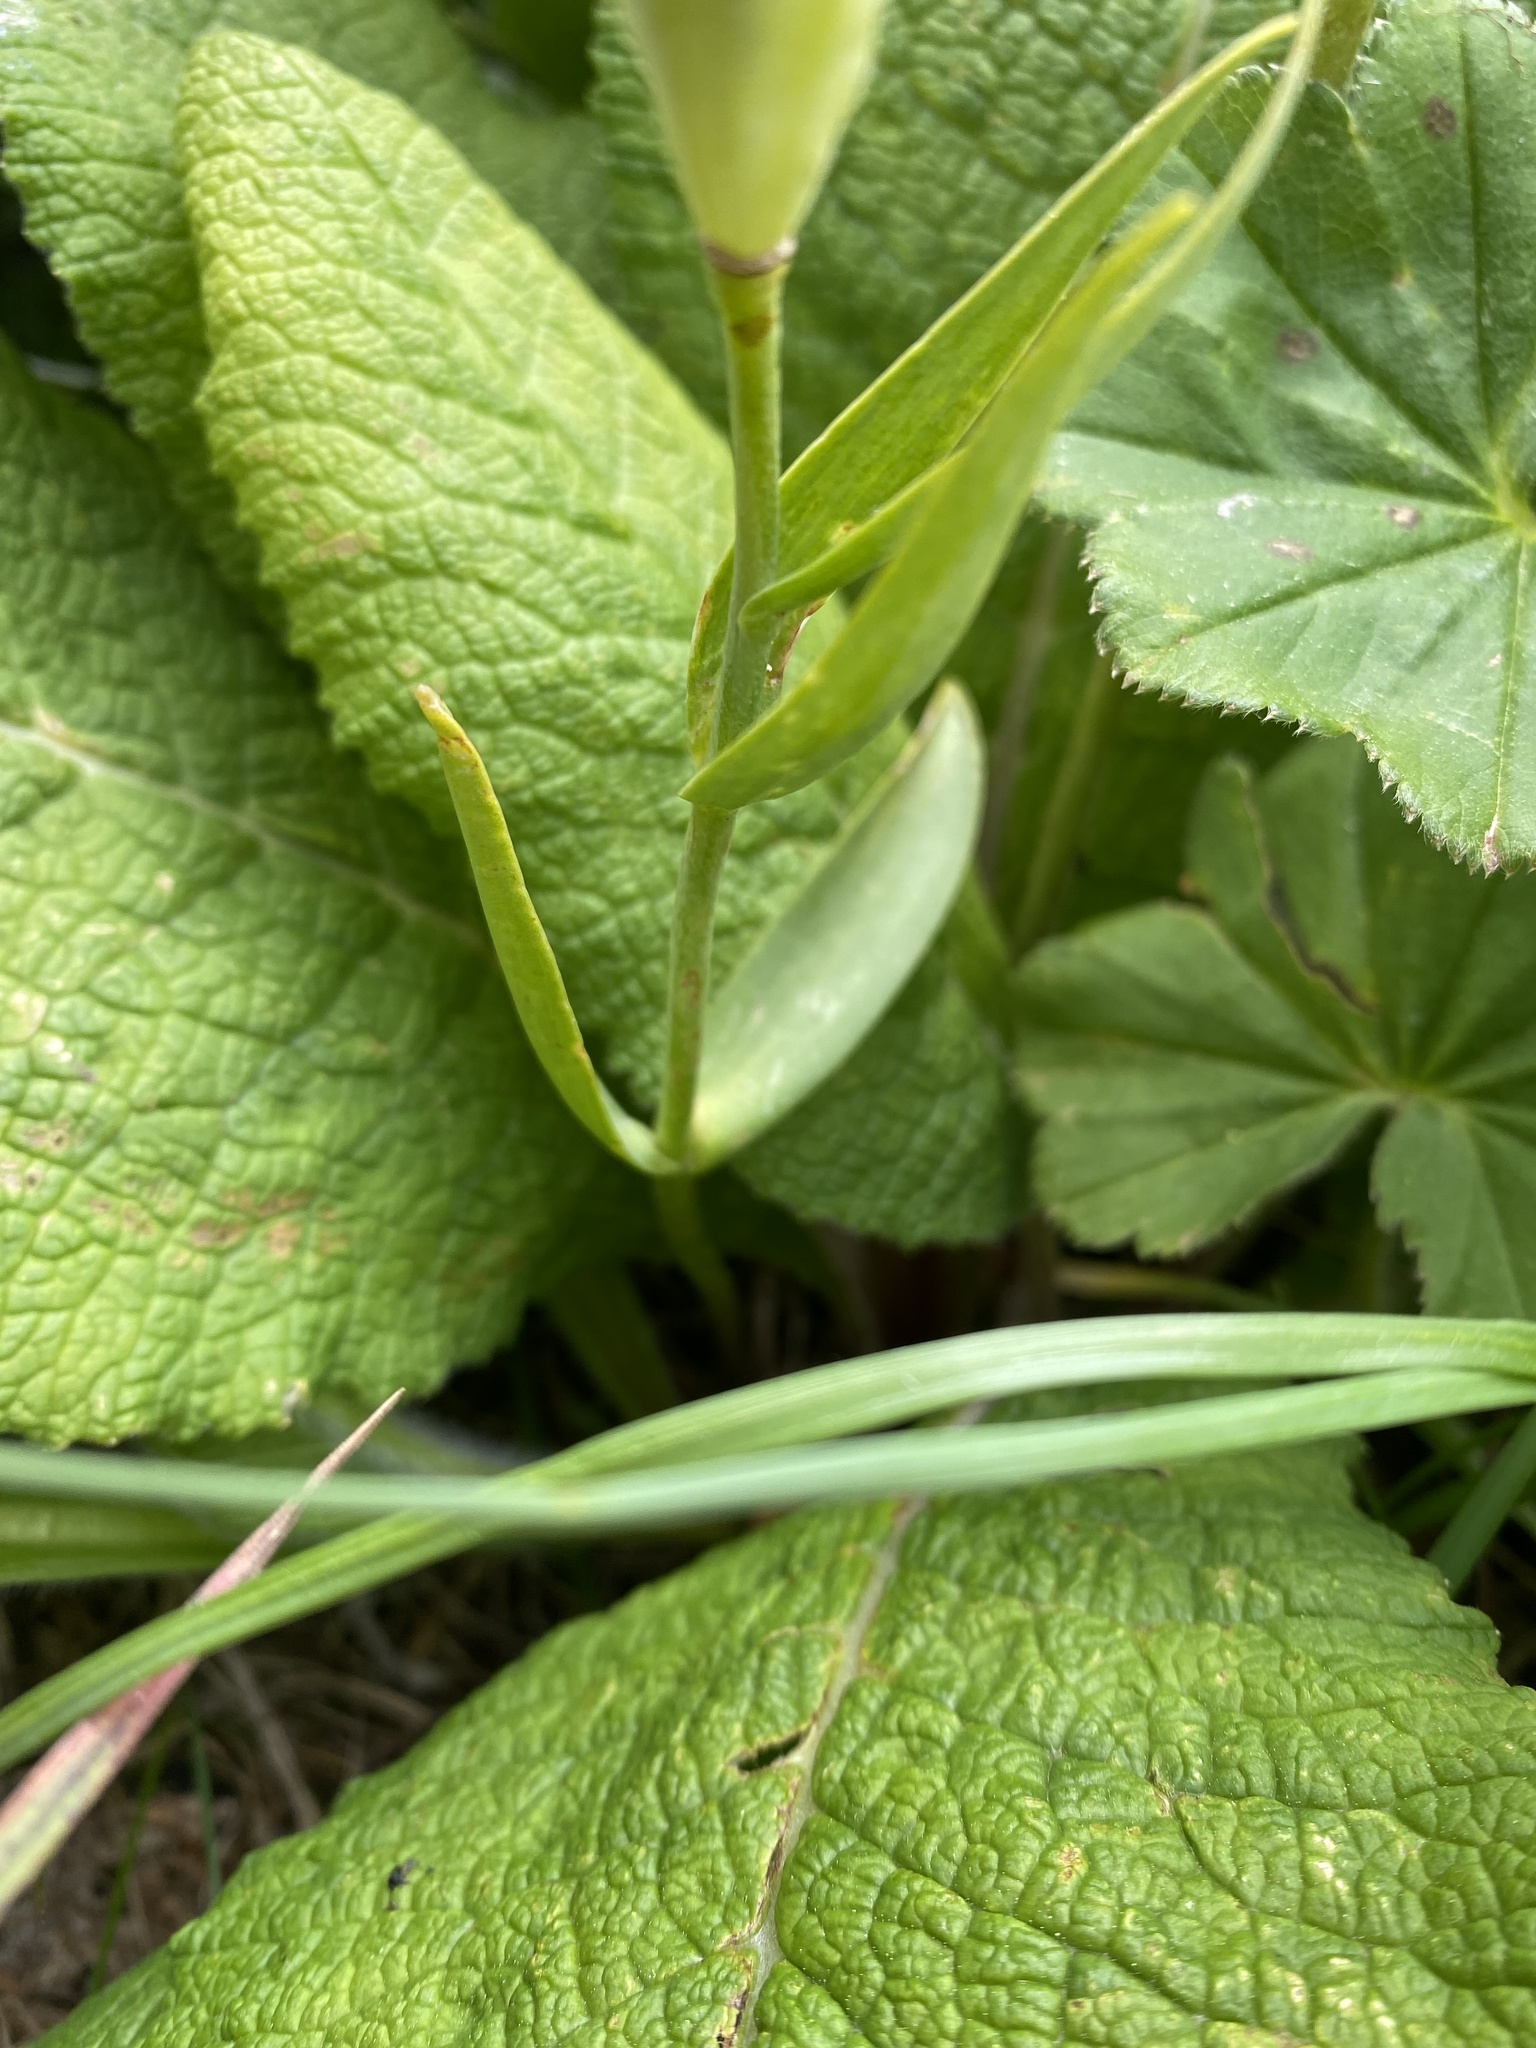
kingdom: Plantae
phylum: Tracheophyta
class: Liliopsida
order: Liliales
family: Liliaceae
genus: Fritillaria
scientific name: Fritillaria collina
